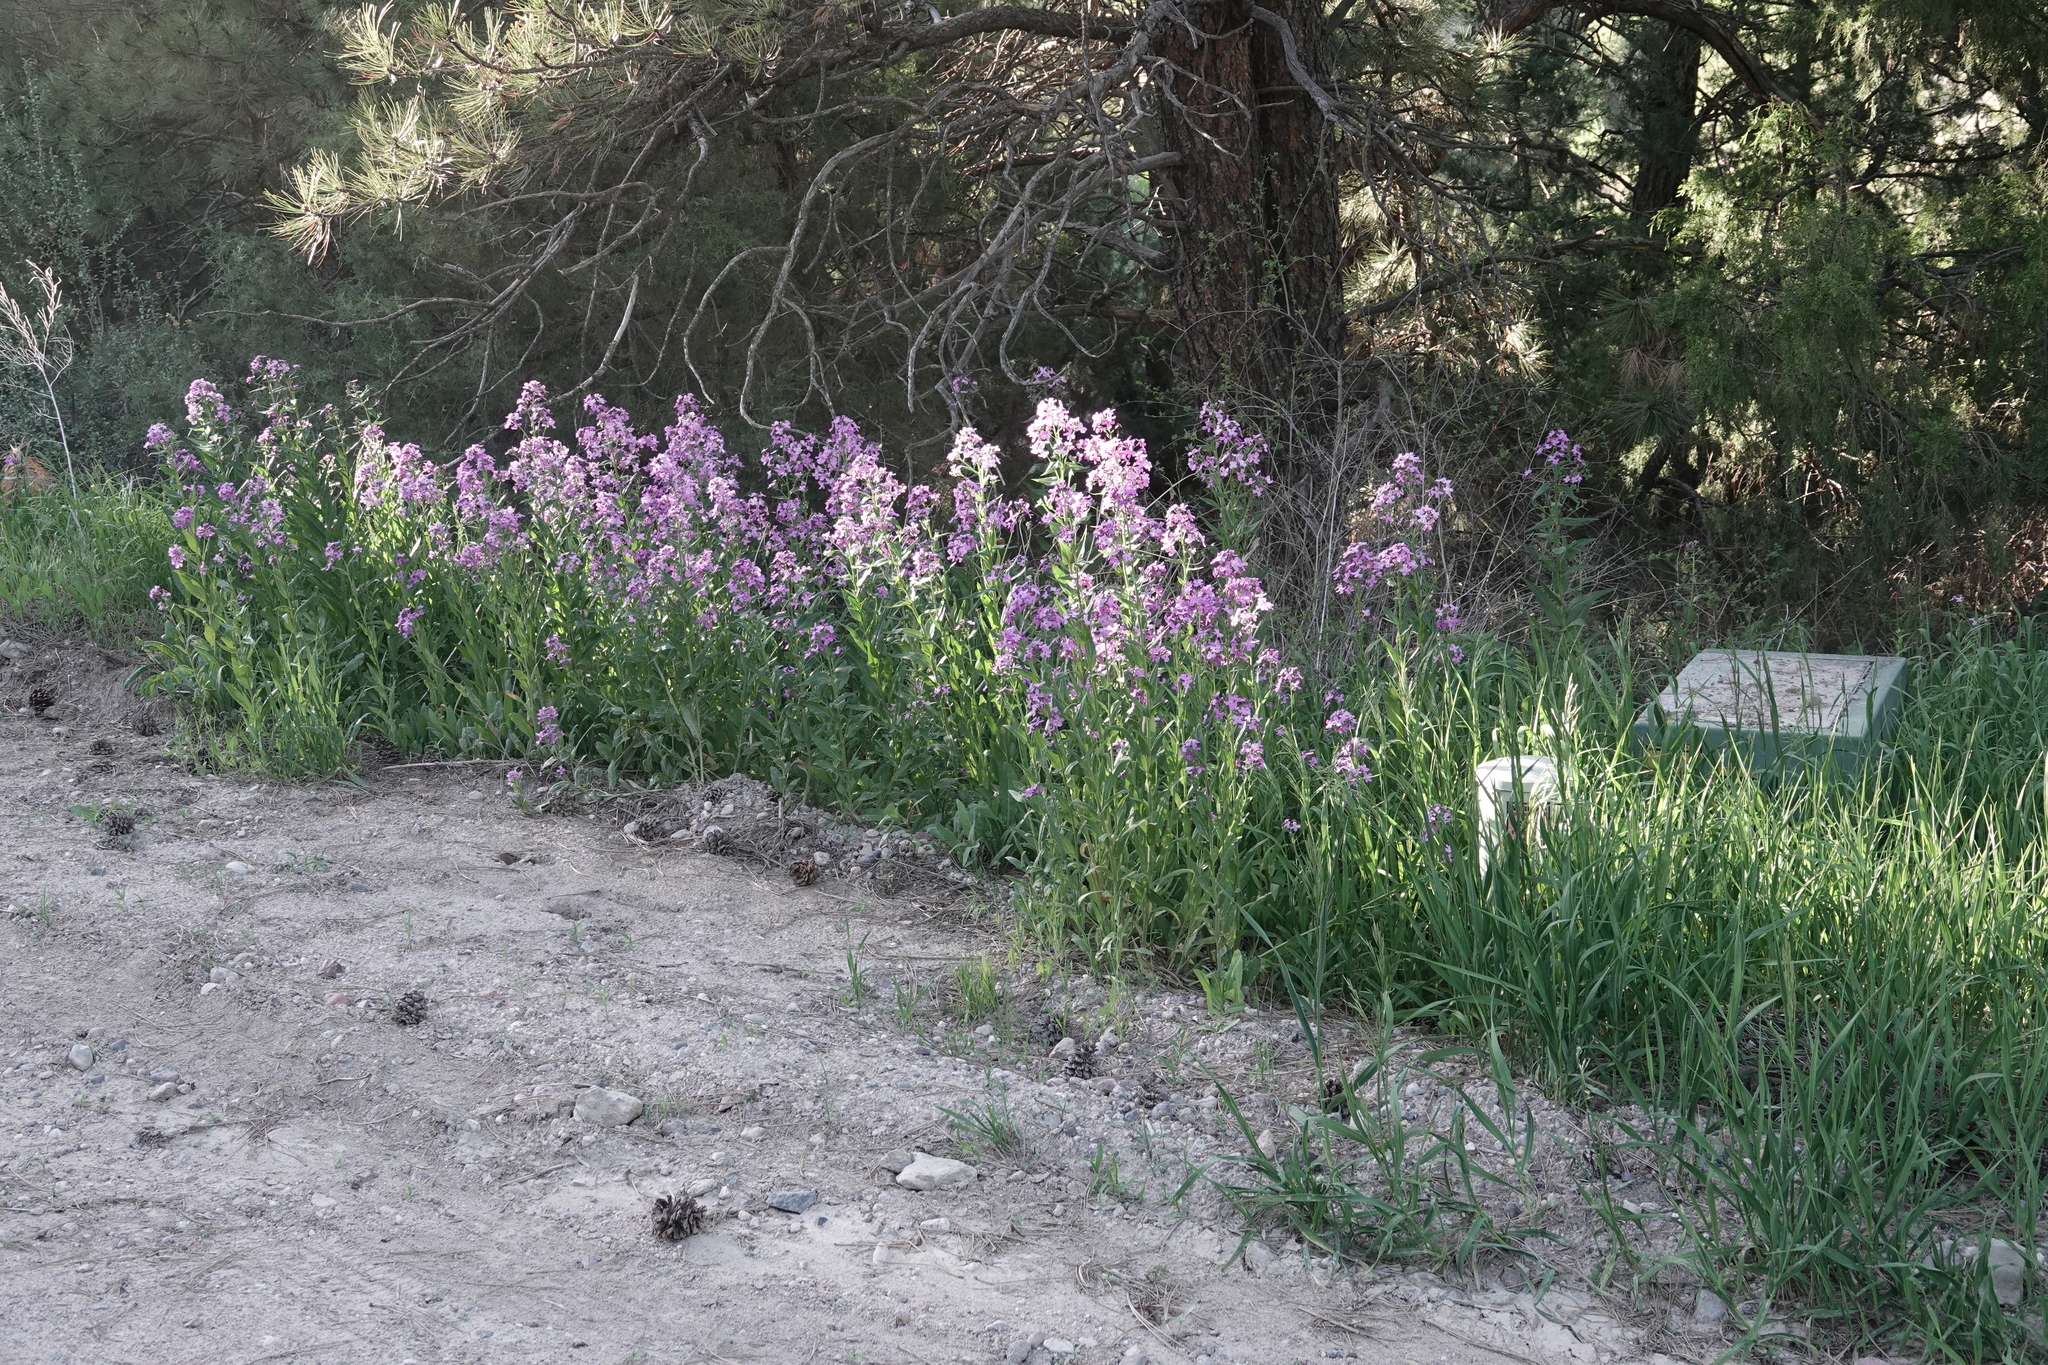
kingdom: Plantae
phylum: Tracheophyta
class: Magnoliopsida
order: Brassicales
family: Brassicaceae
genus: Hesperis
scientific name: Hesperis matronalis
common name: Dame's-violet
